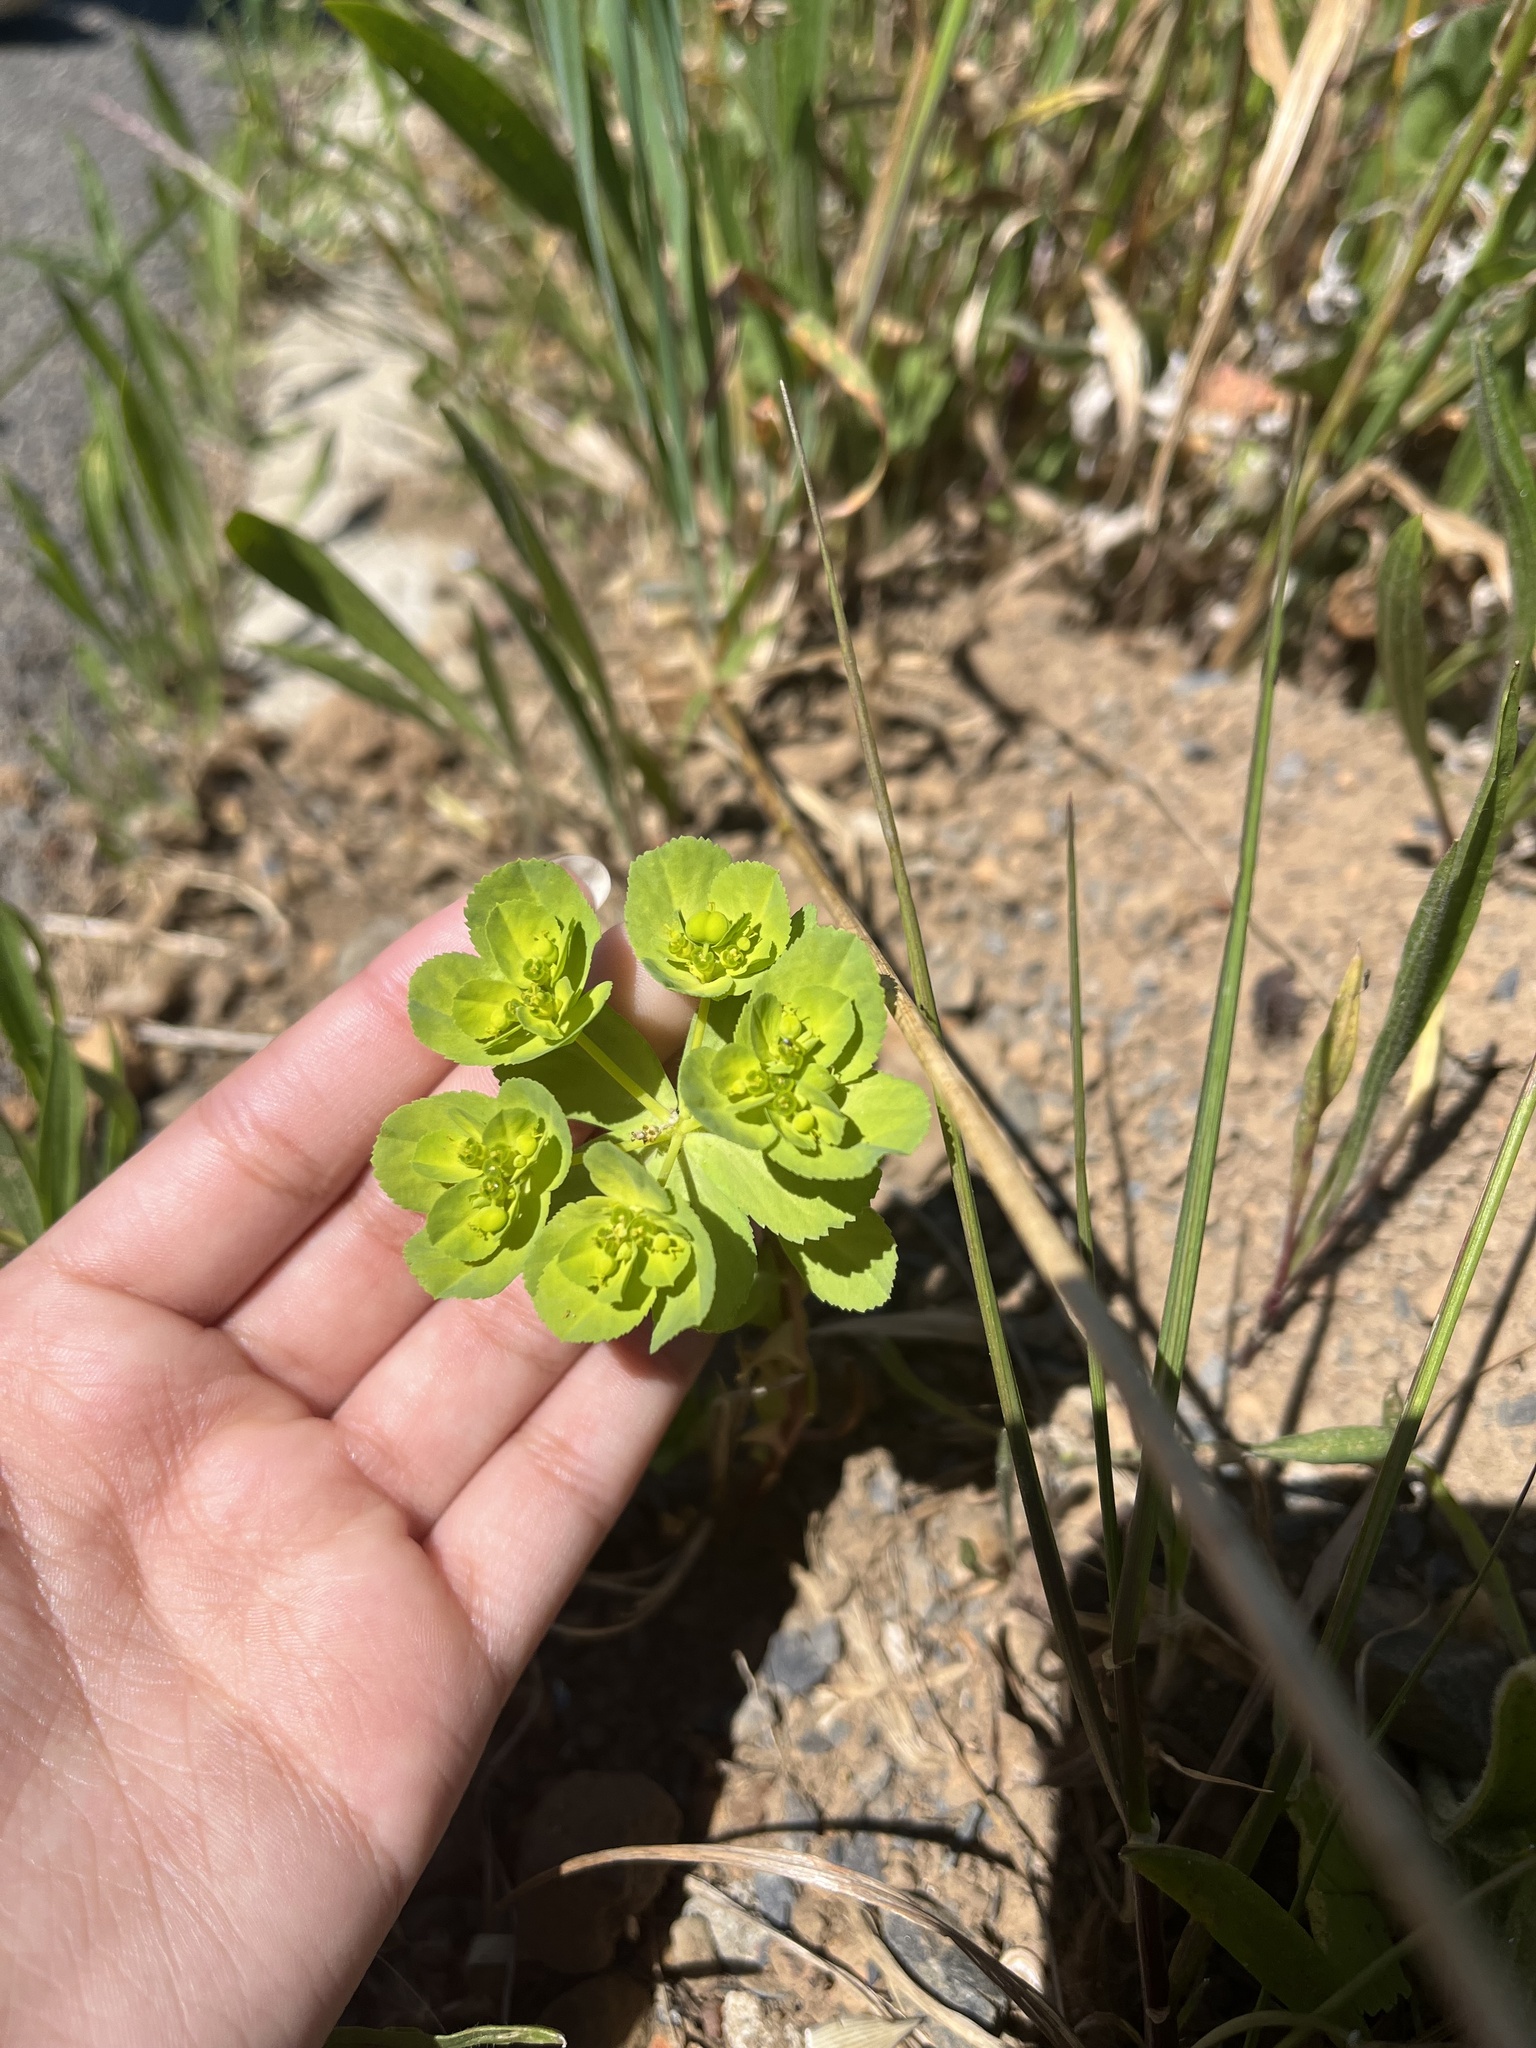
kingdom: Plantae
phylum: Tracheophyta
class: Magnoliopsida
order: Malpighiales
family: Euphorbiaceae
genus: Euphorbia
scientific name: Euphorbia helioscopia
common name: Sun spurge
